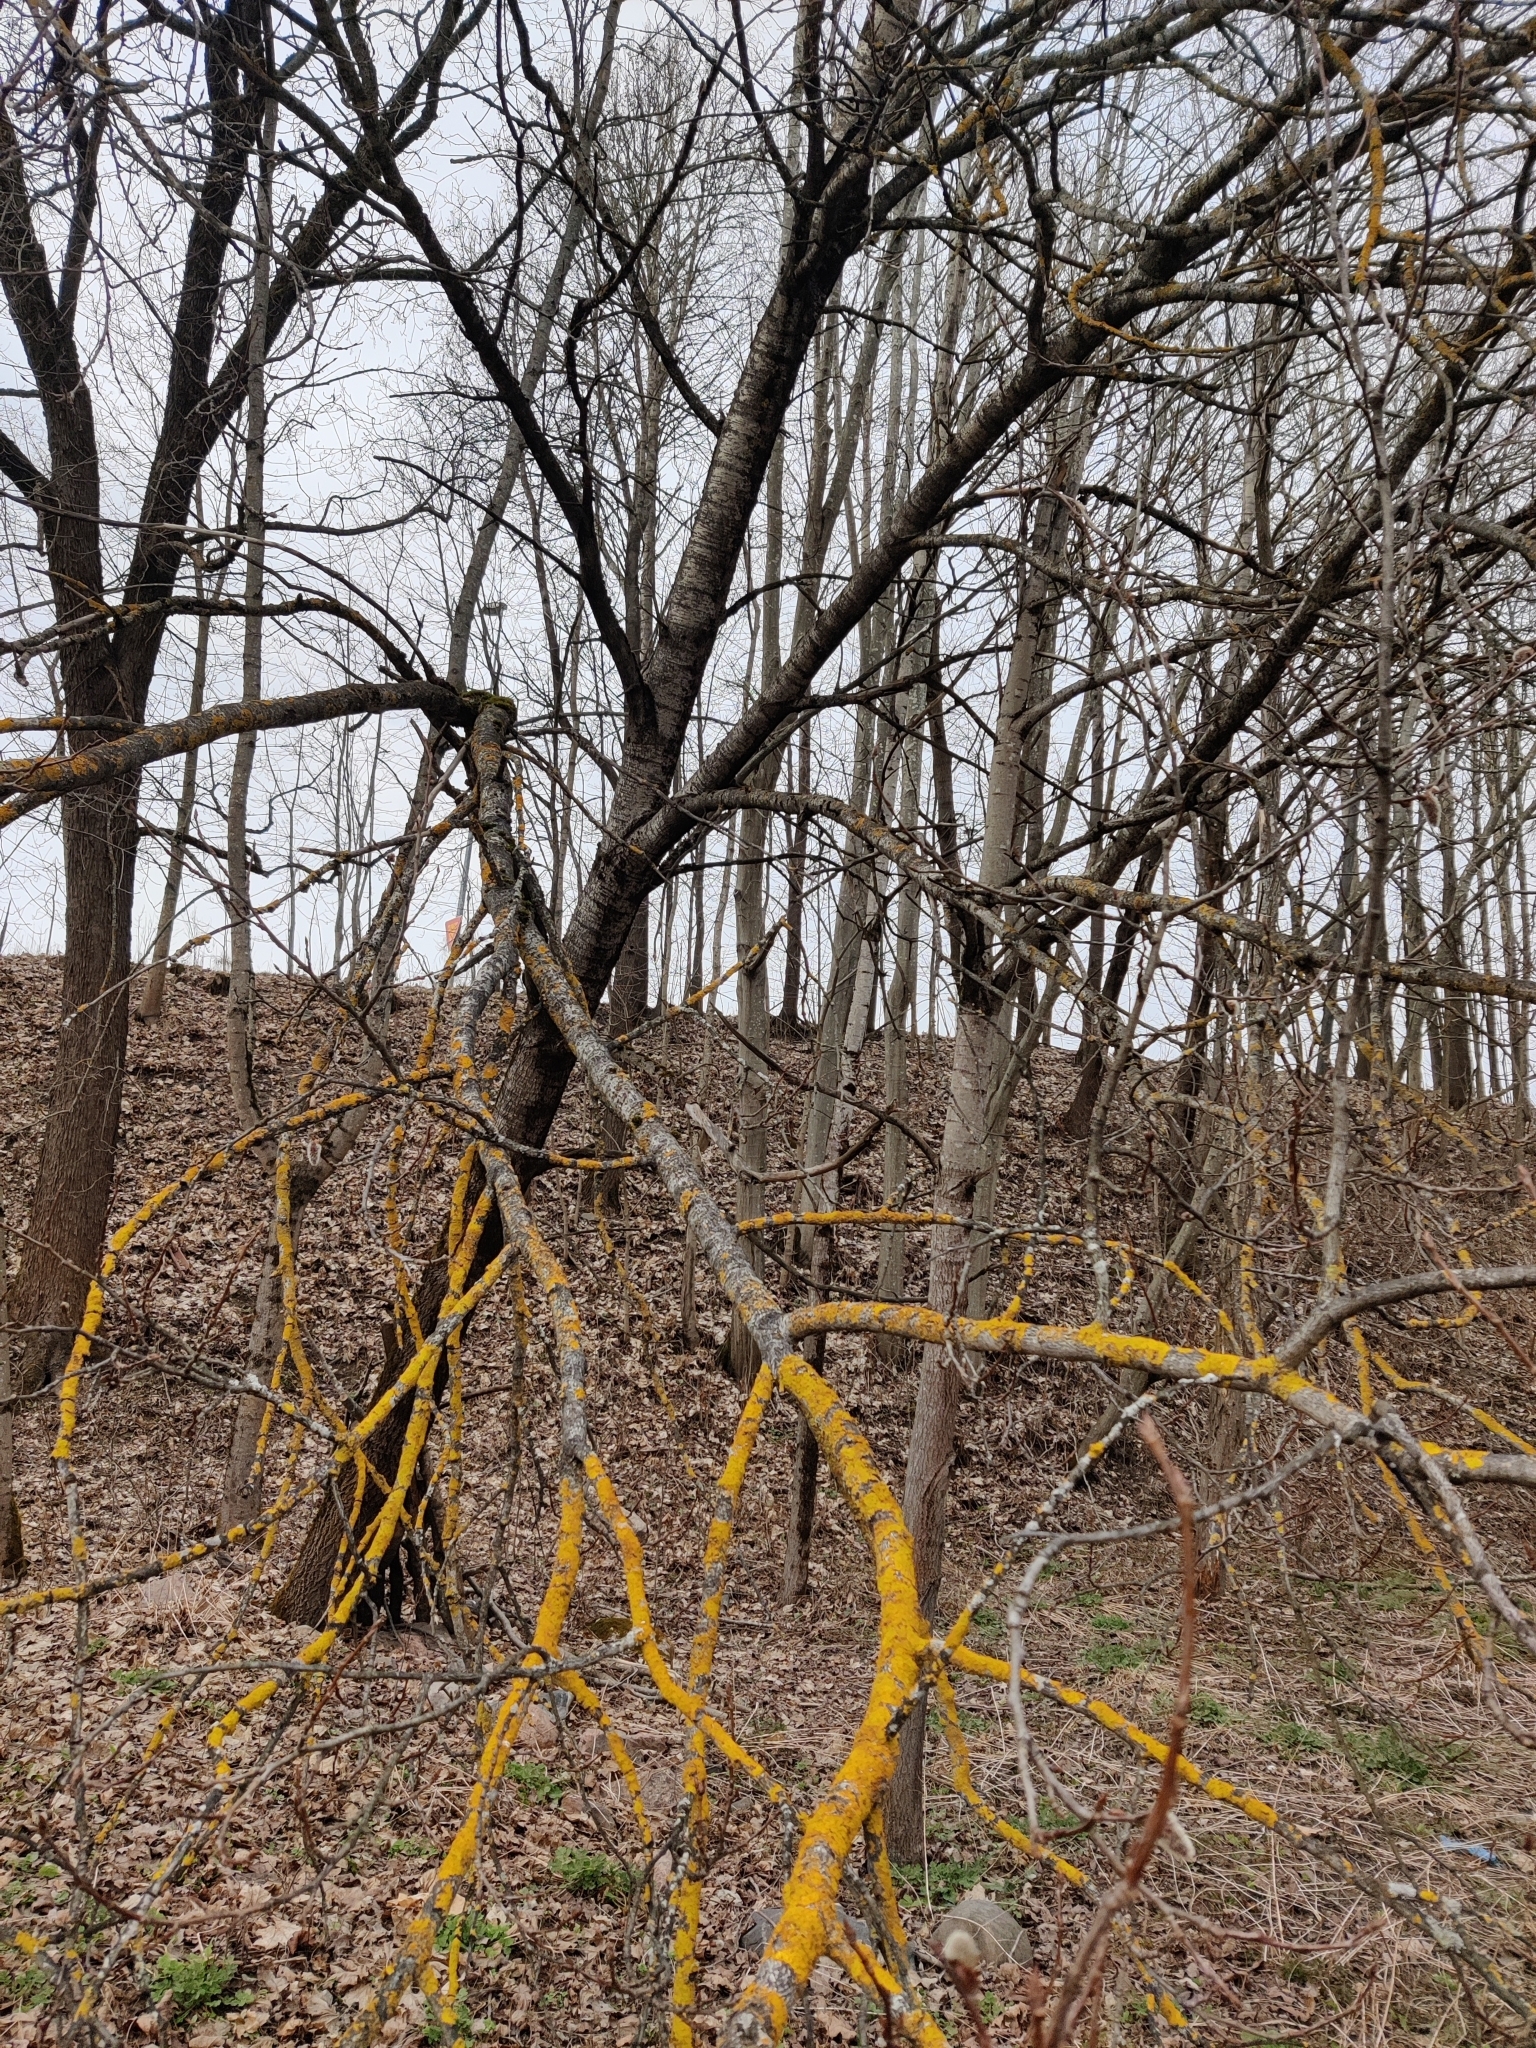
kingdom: Plantae
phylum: Tracheophyta
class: Magnoliopsida
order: Malpighiales
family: Salicaceae
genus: Populus
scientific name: Populus tremula
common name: European aspen
